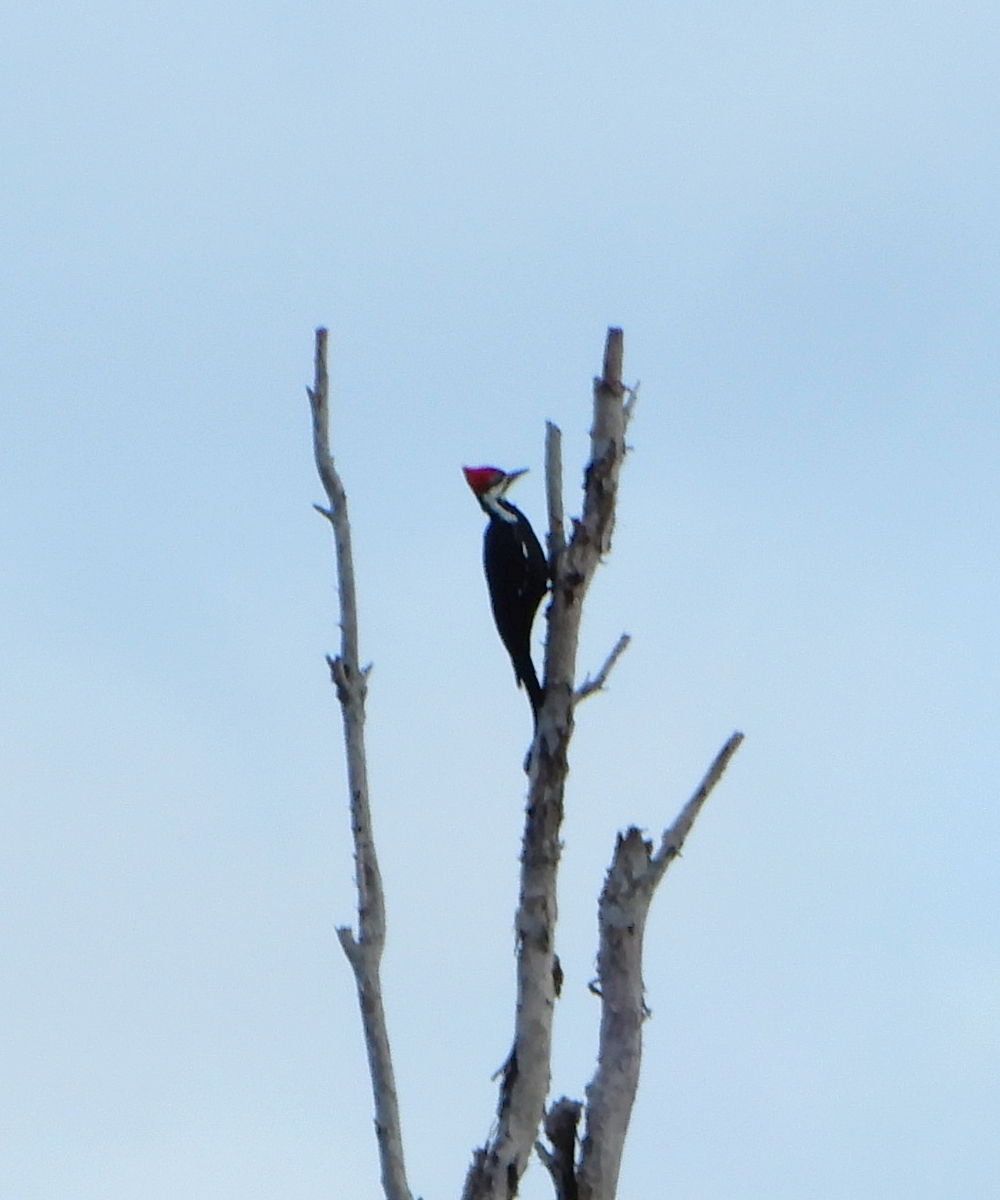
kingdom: Animalia
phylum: Chordata
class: Aves
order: Piciformes
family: Picidae
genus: Dryocopus
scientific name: Dryocopus pileatus
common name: Pileated woodpecker
